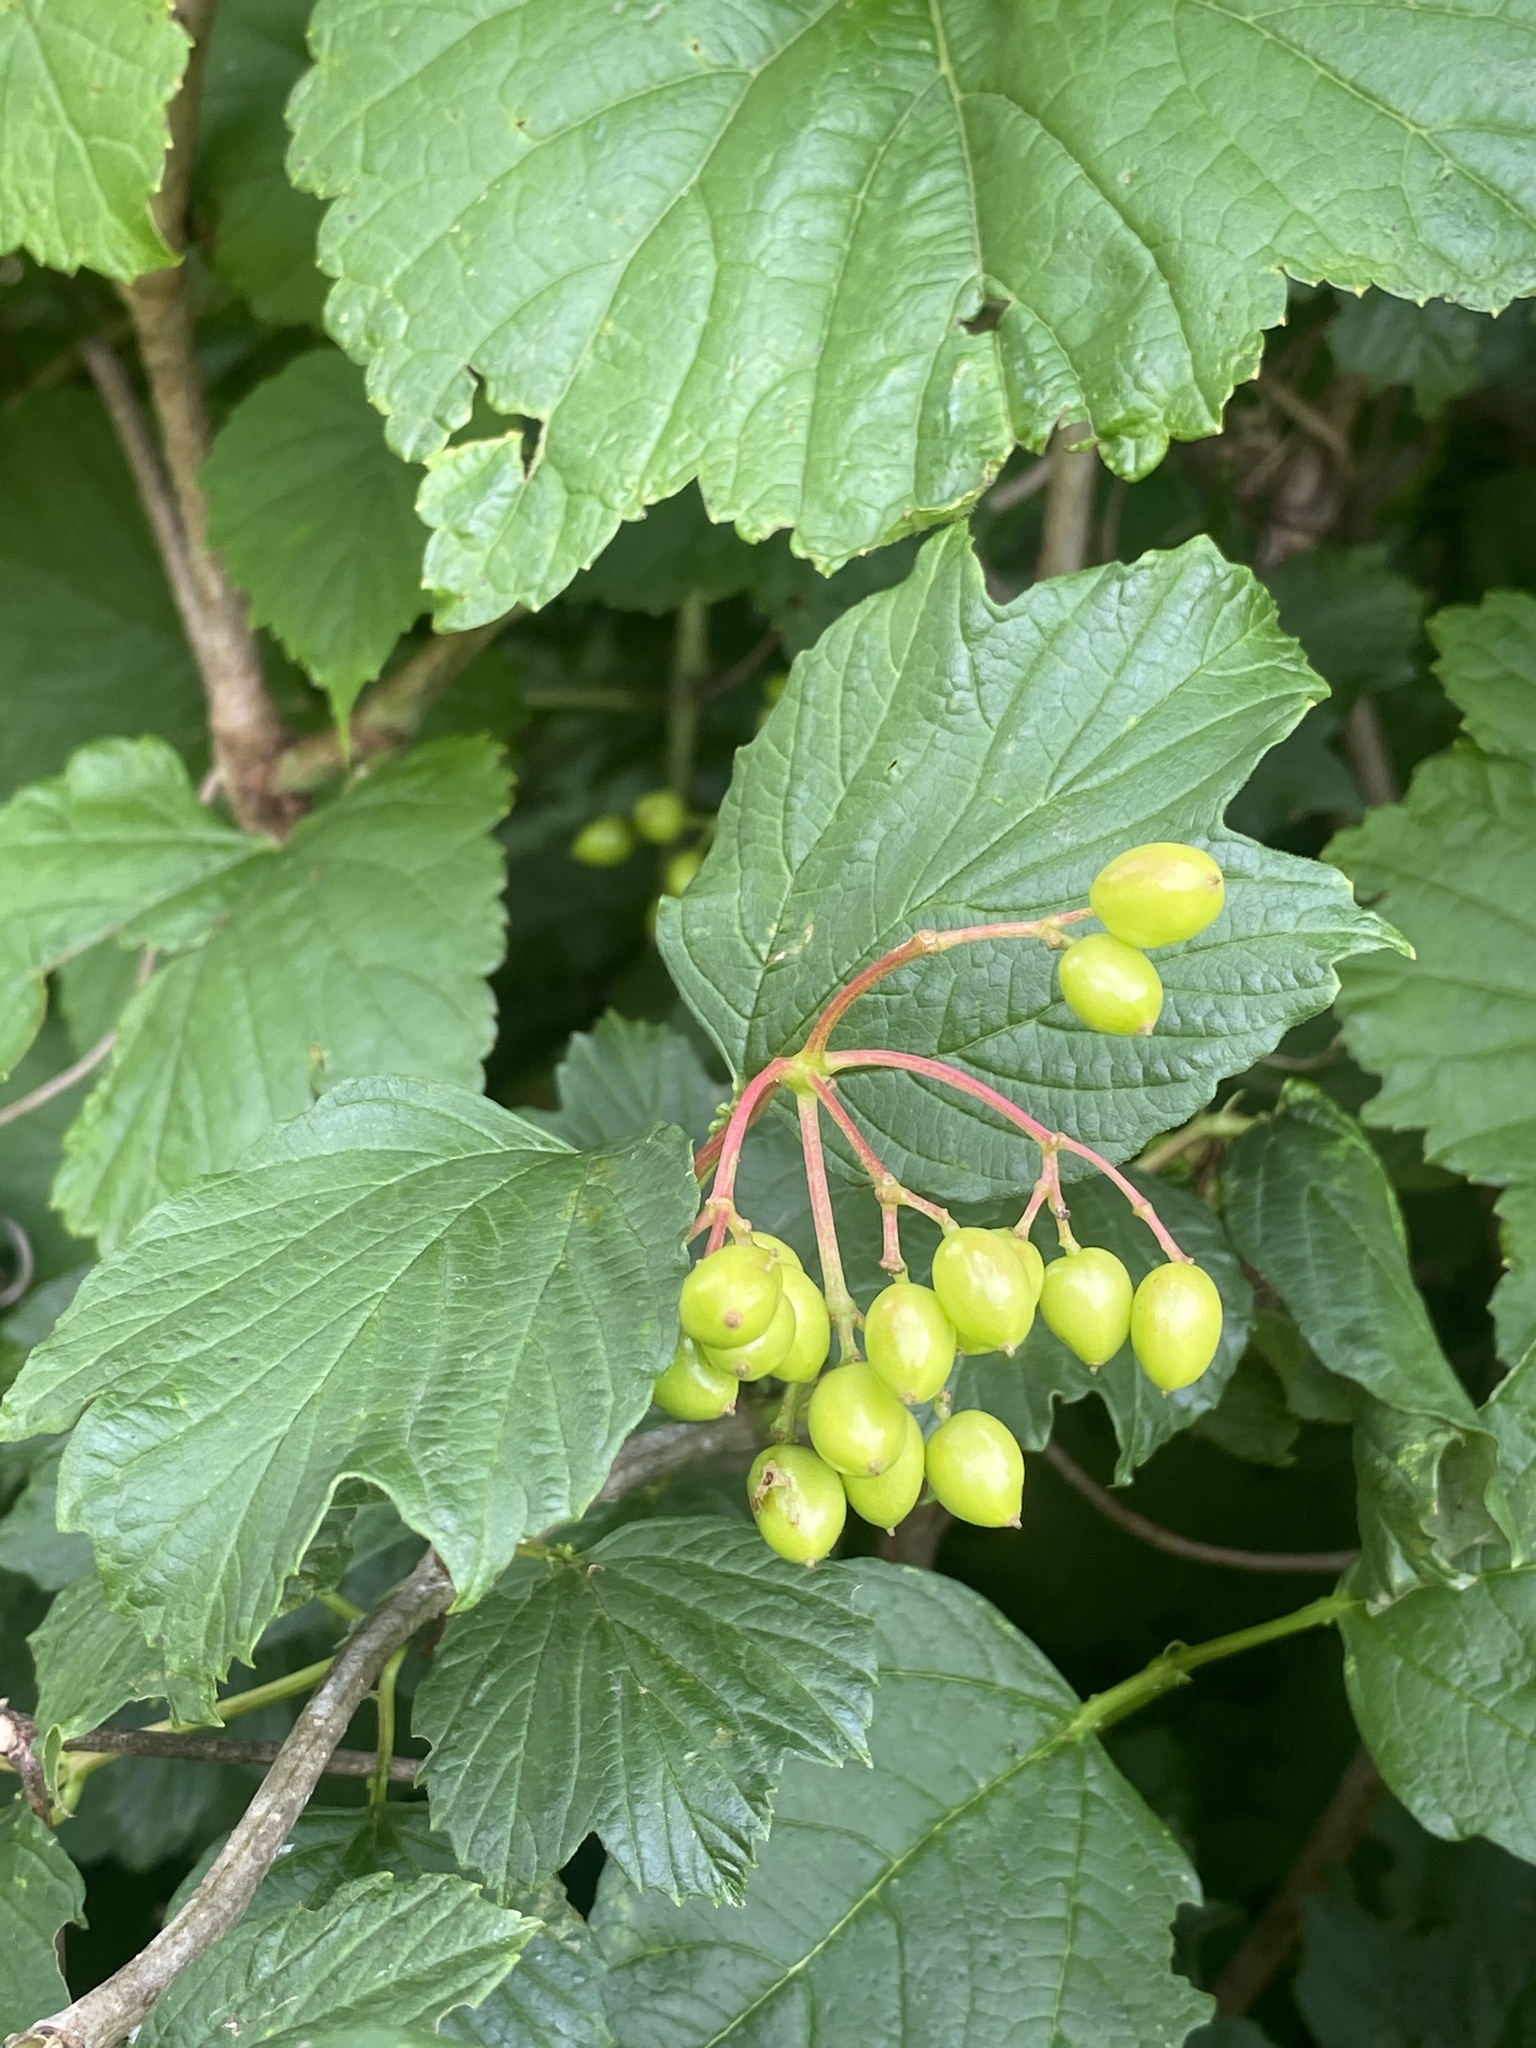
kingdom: Plantae
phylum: Tracheophyta
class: Magnoliopsida
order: Dipsacales
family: Viburnaceae
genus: Viburnum
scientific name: Viburnum opulus
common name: Guelder-rose
